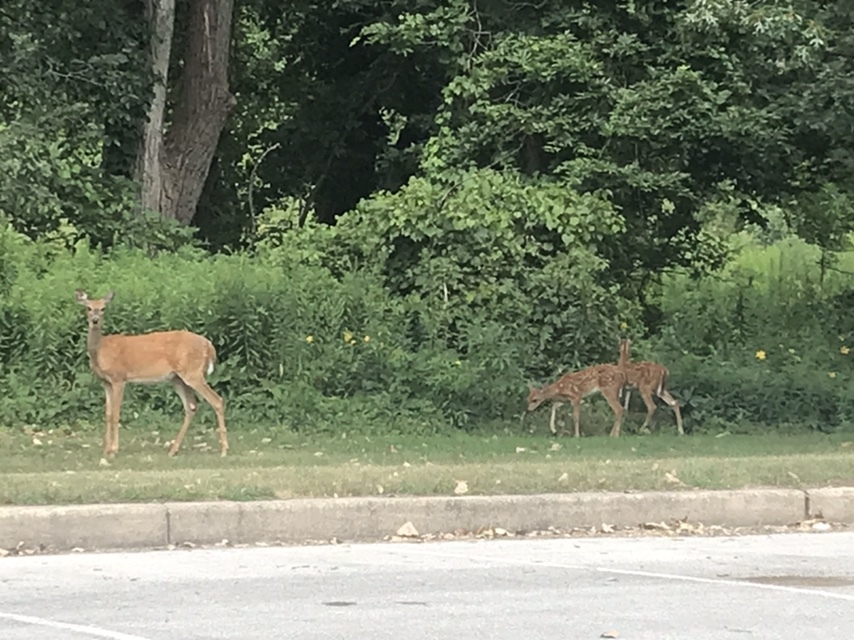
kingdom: Animalia
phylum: Chordata
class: Mammalia
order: Artiodactyla
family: Cervidae
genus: Odocoileus
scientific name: Odocoileus virginianus
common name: White-tailed deer
